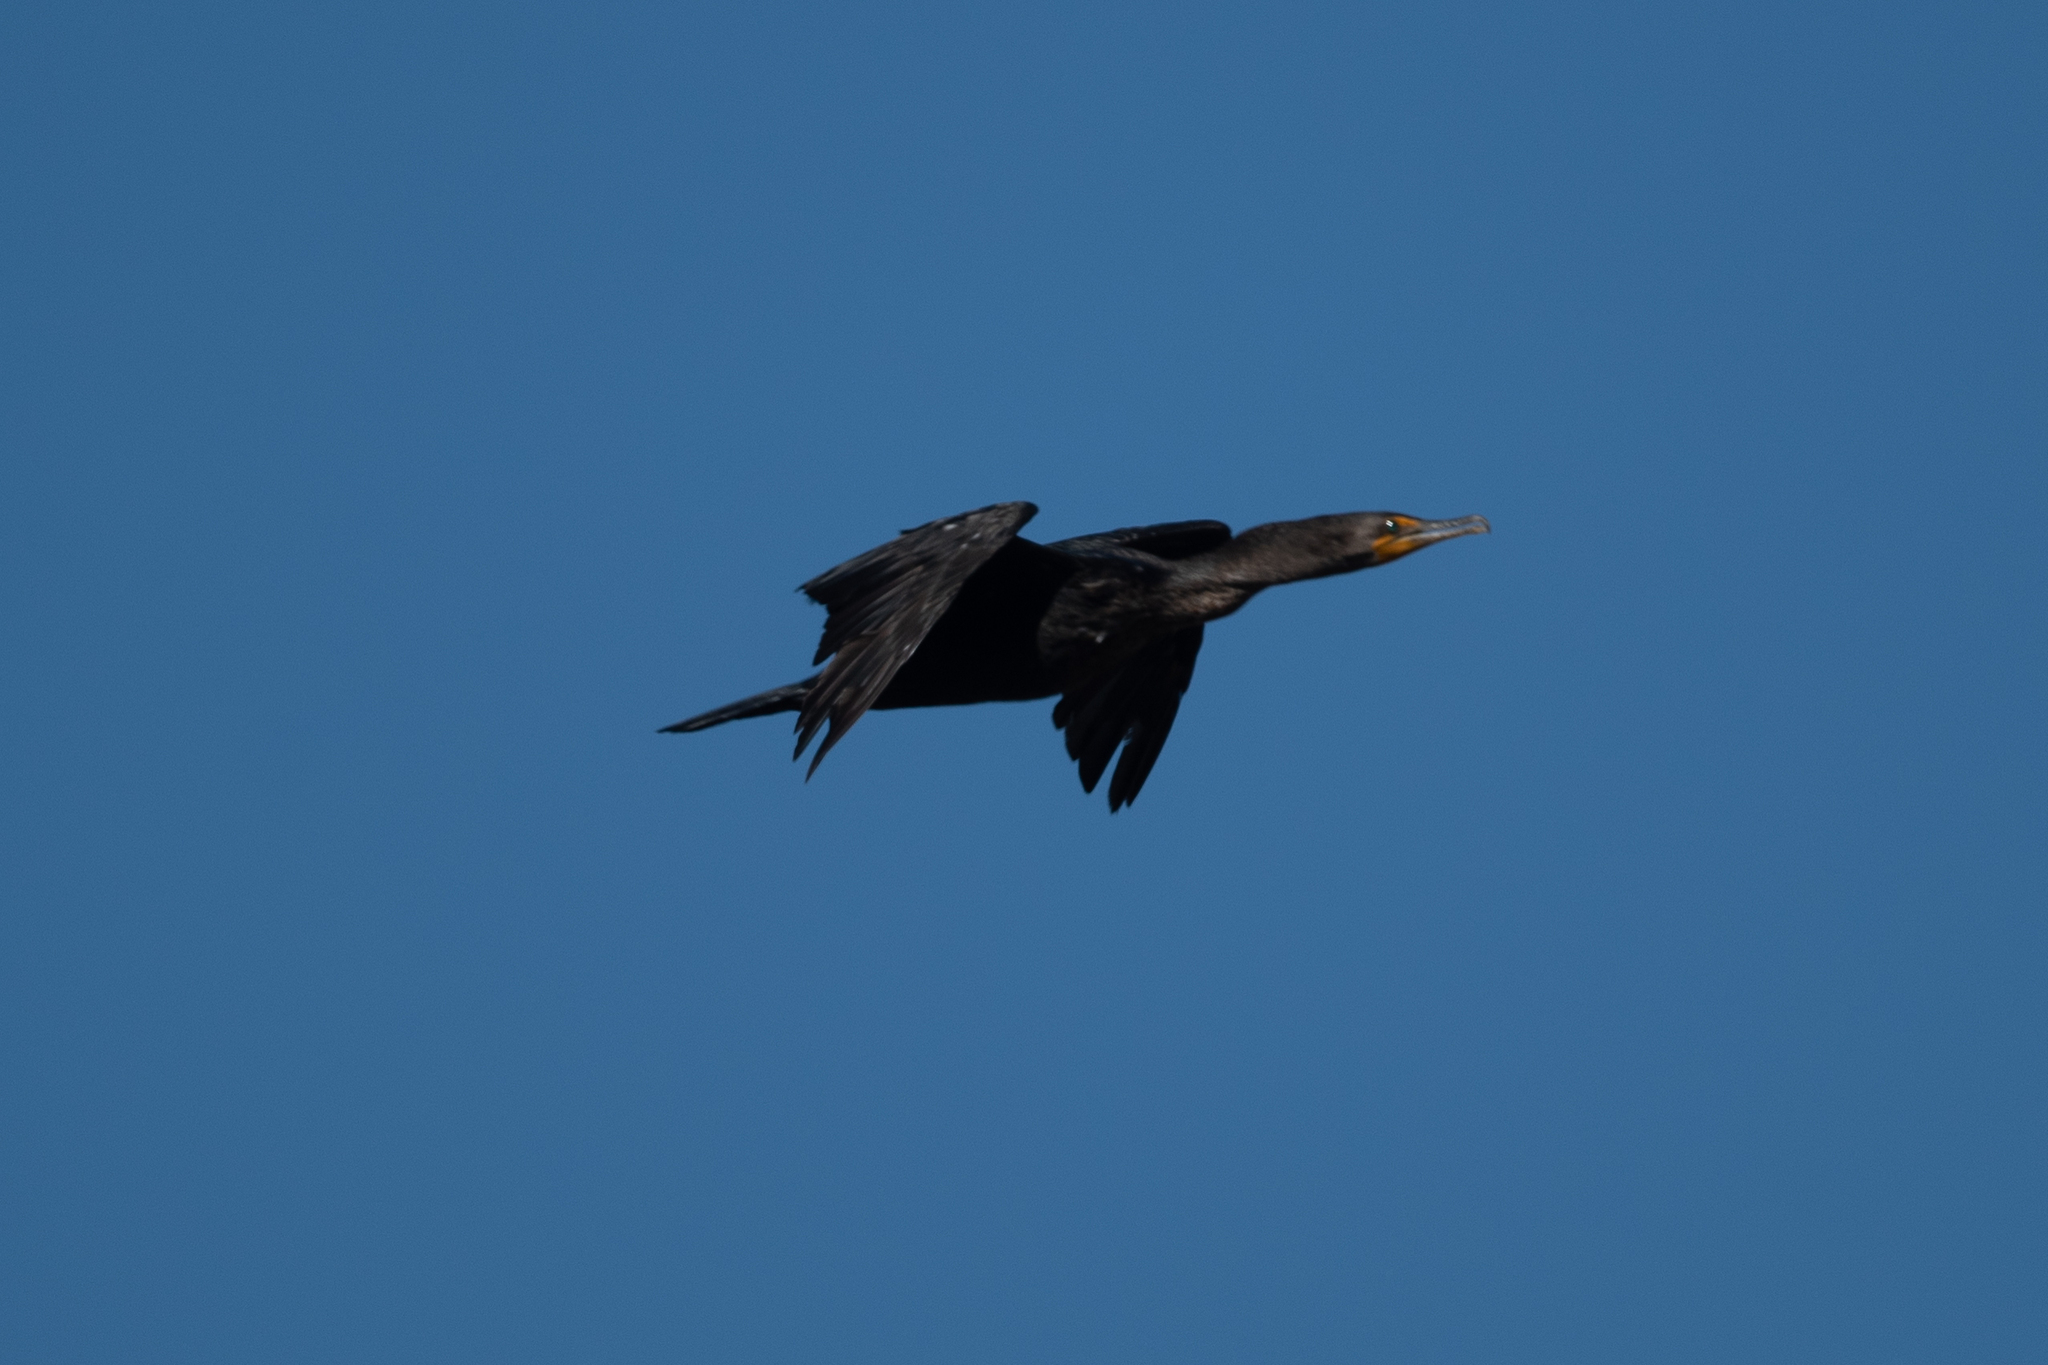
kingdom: Animalia
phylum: Chordata
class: Aves
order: Suliformes
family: Phalacrocoracidae
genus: Phalacrocorax
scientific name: Phalacrocorax auritus
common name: Double-crested cormorant
